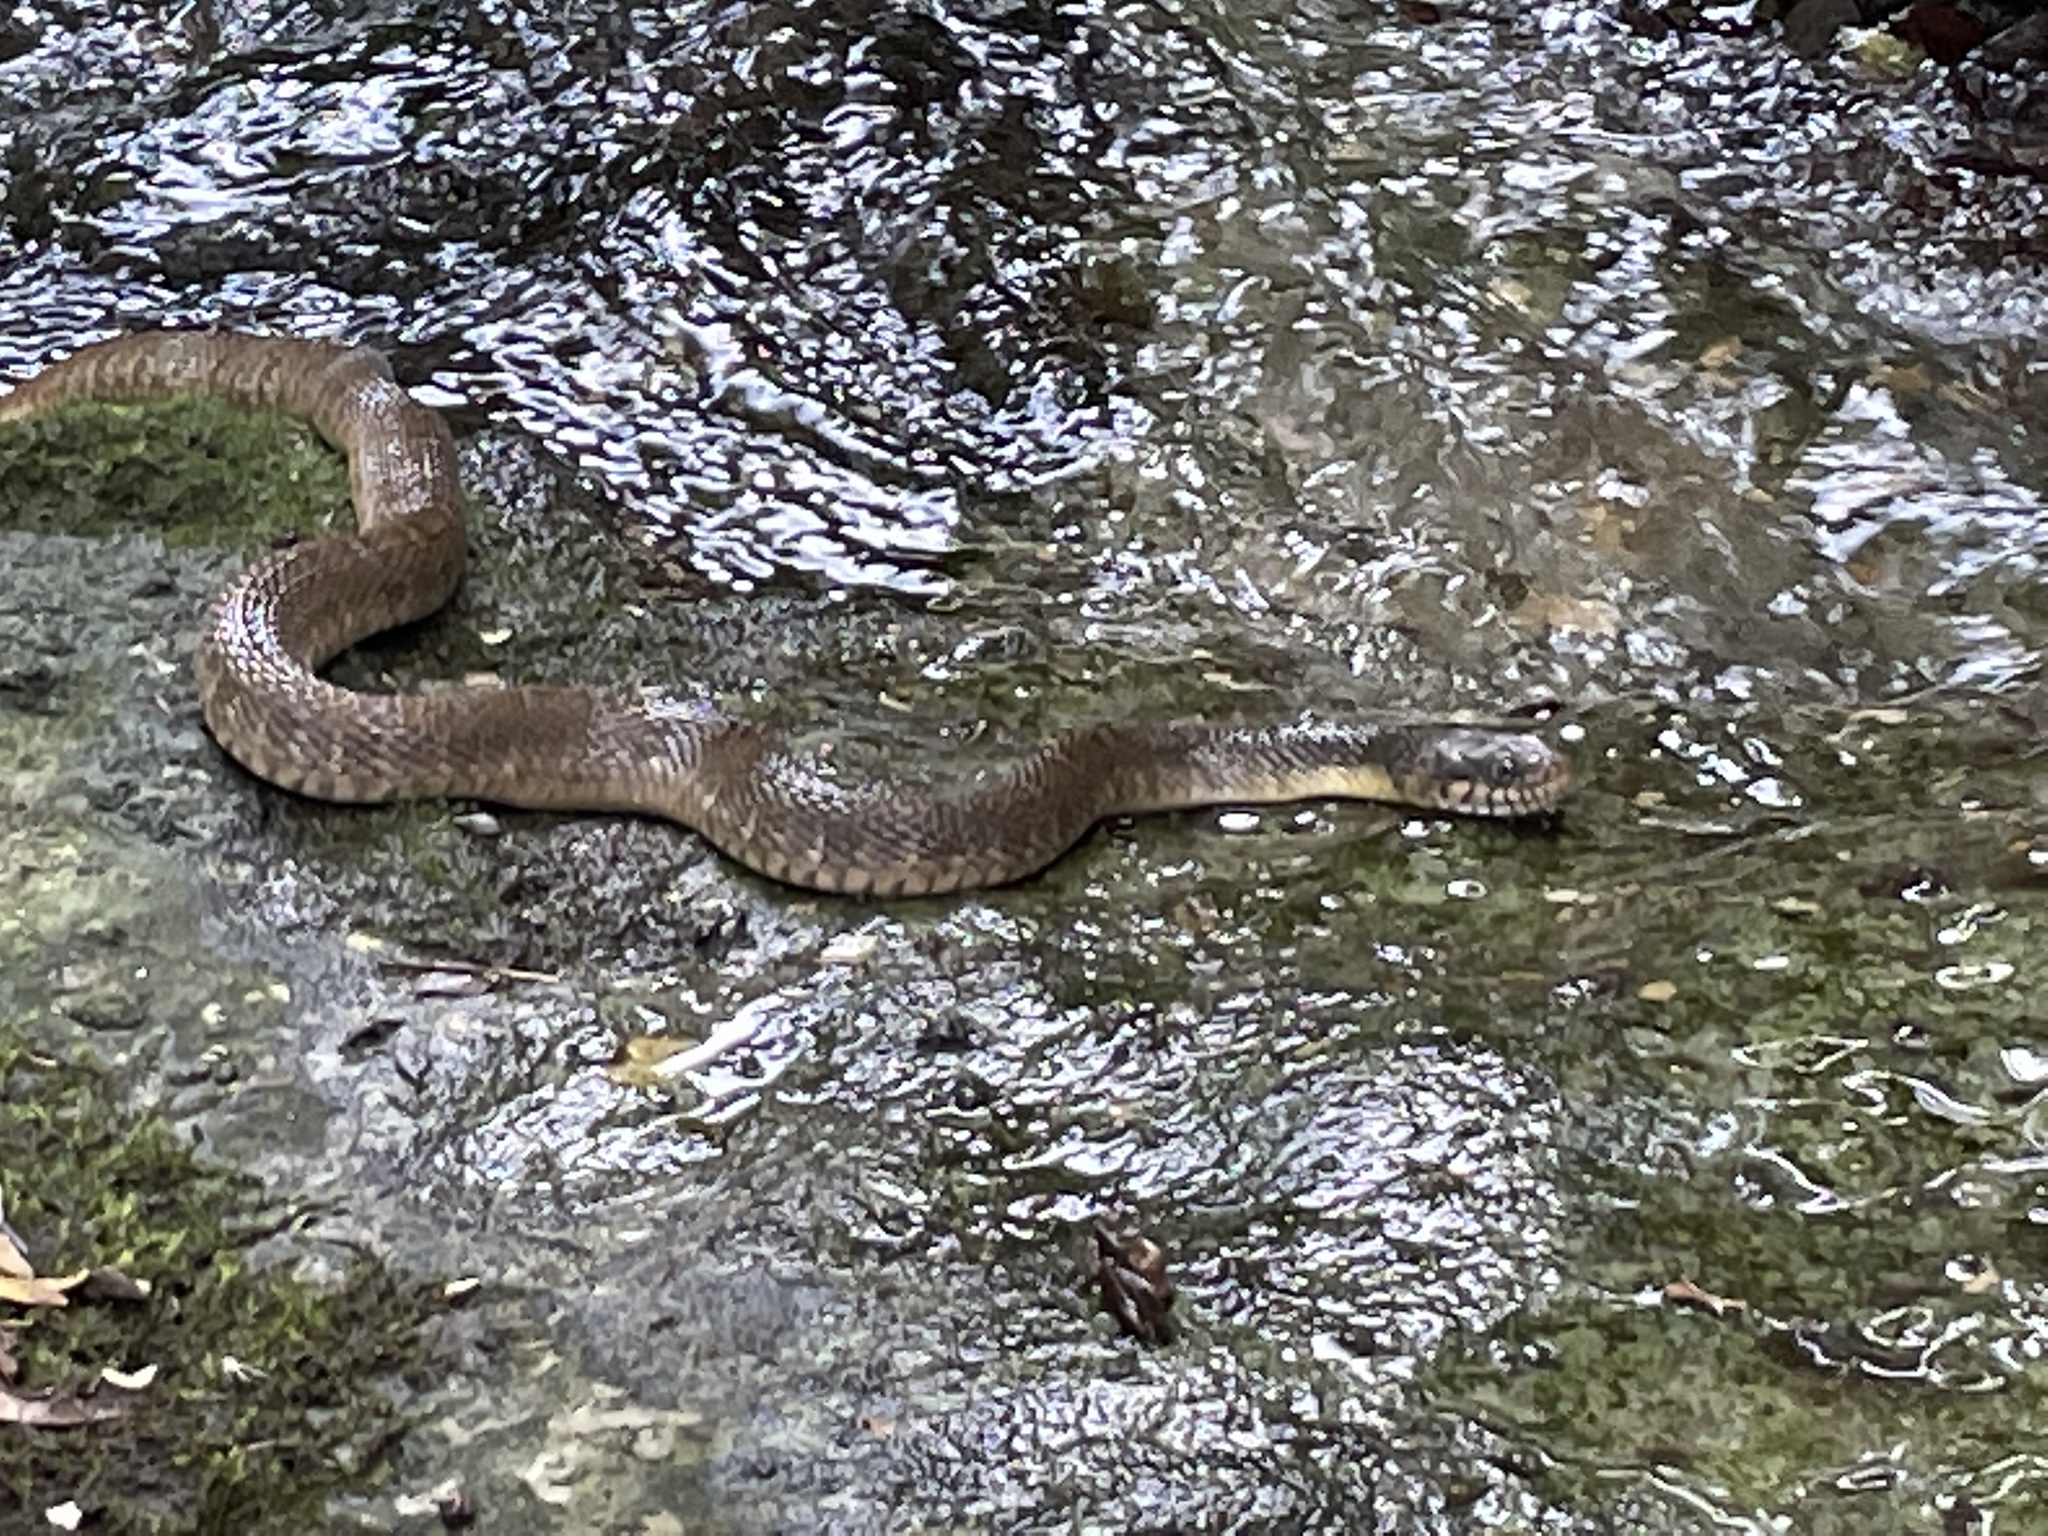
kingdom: Animalia
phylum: Chordata
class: Squamata
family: Colubridae
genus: Nerodia
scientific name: Nerodia erythrogaster
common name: Plainbelly water snake
